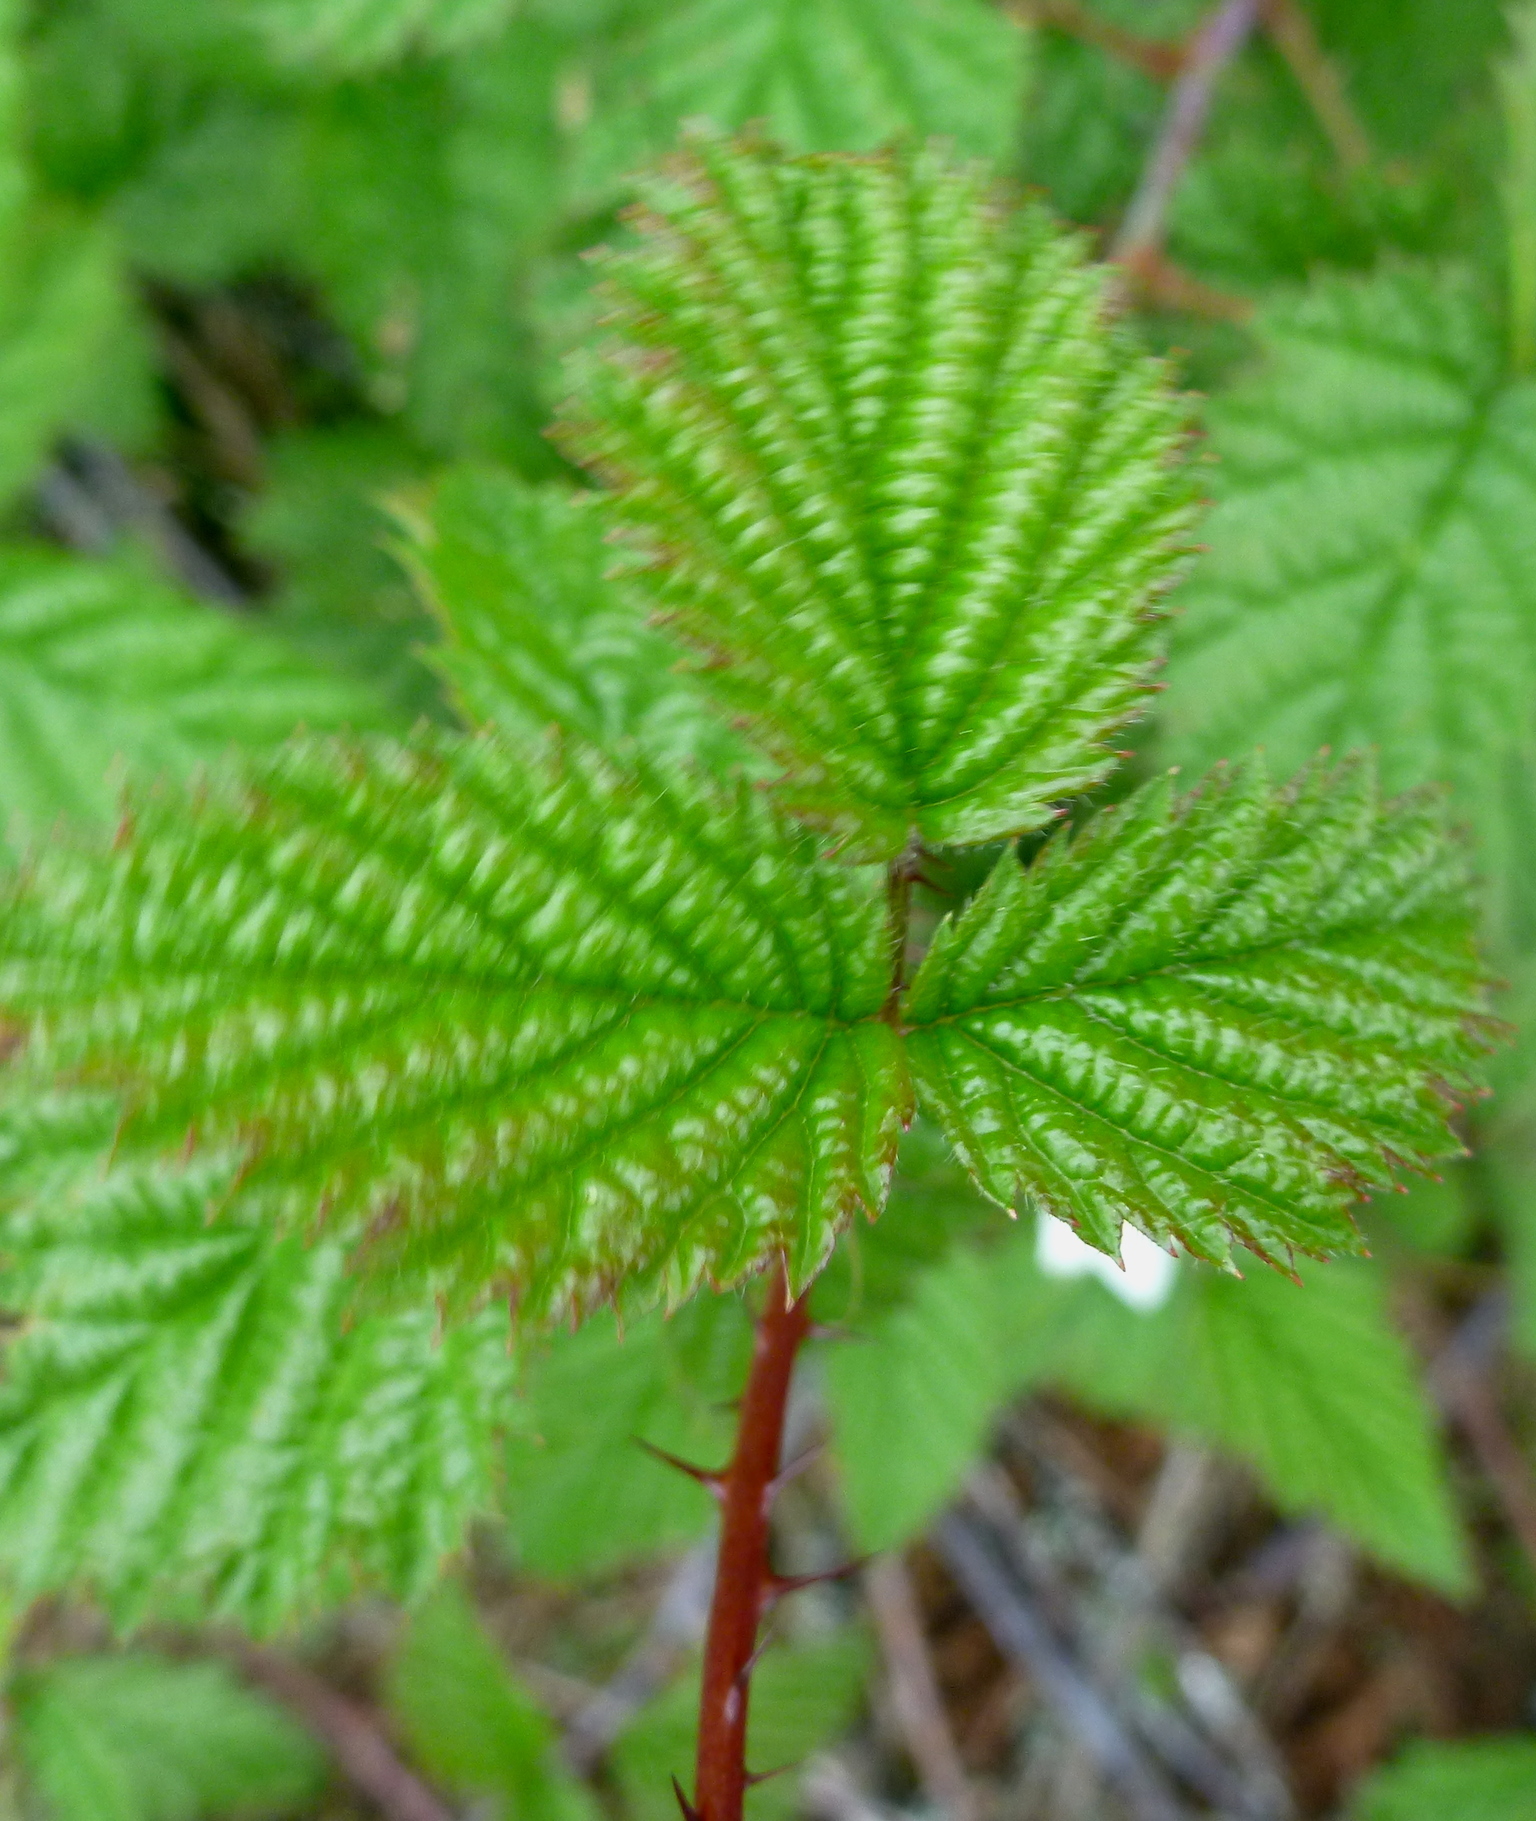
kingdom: Plantae
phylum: Tracheophyta
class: Magnoliopsida
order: Rosales
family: Rosaceae
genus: Rubus
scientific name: Rubus ursinus
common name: Pacific blackberry
